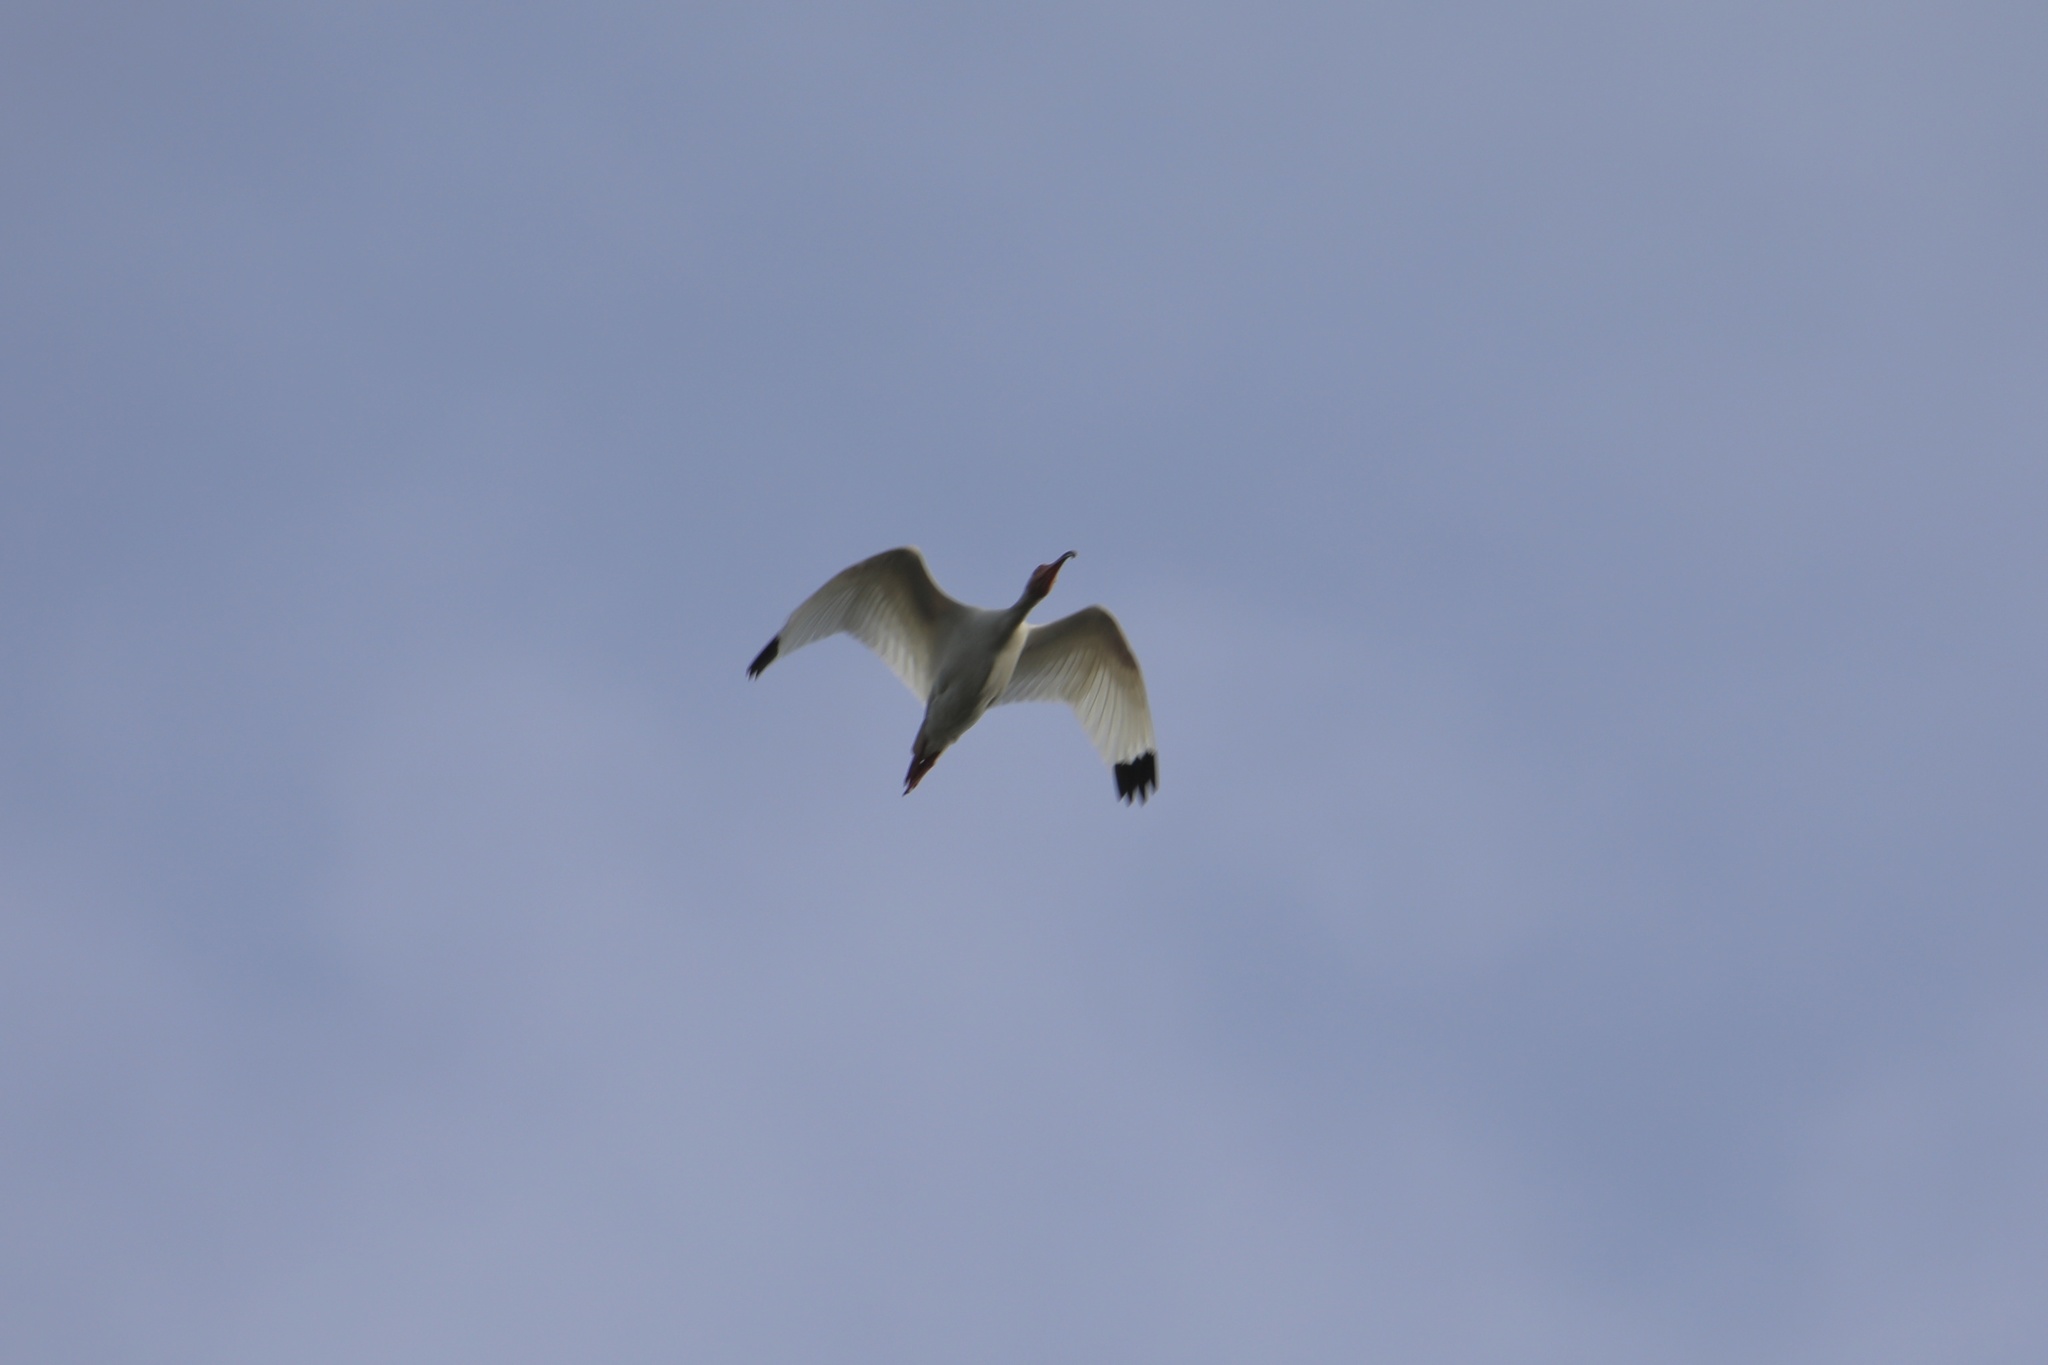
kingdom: Animalia
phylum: Chordata
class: Aves
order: Pelecaniformes
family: Threskiornithidae
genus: Eudocimus
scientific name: Eudocimus albus
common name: White ibis
